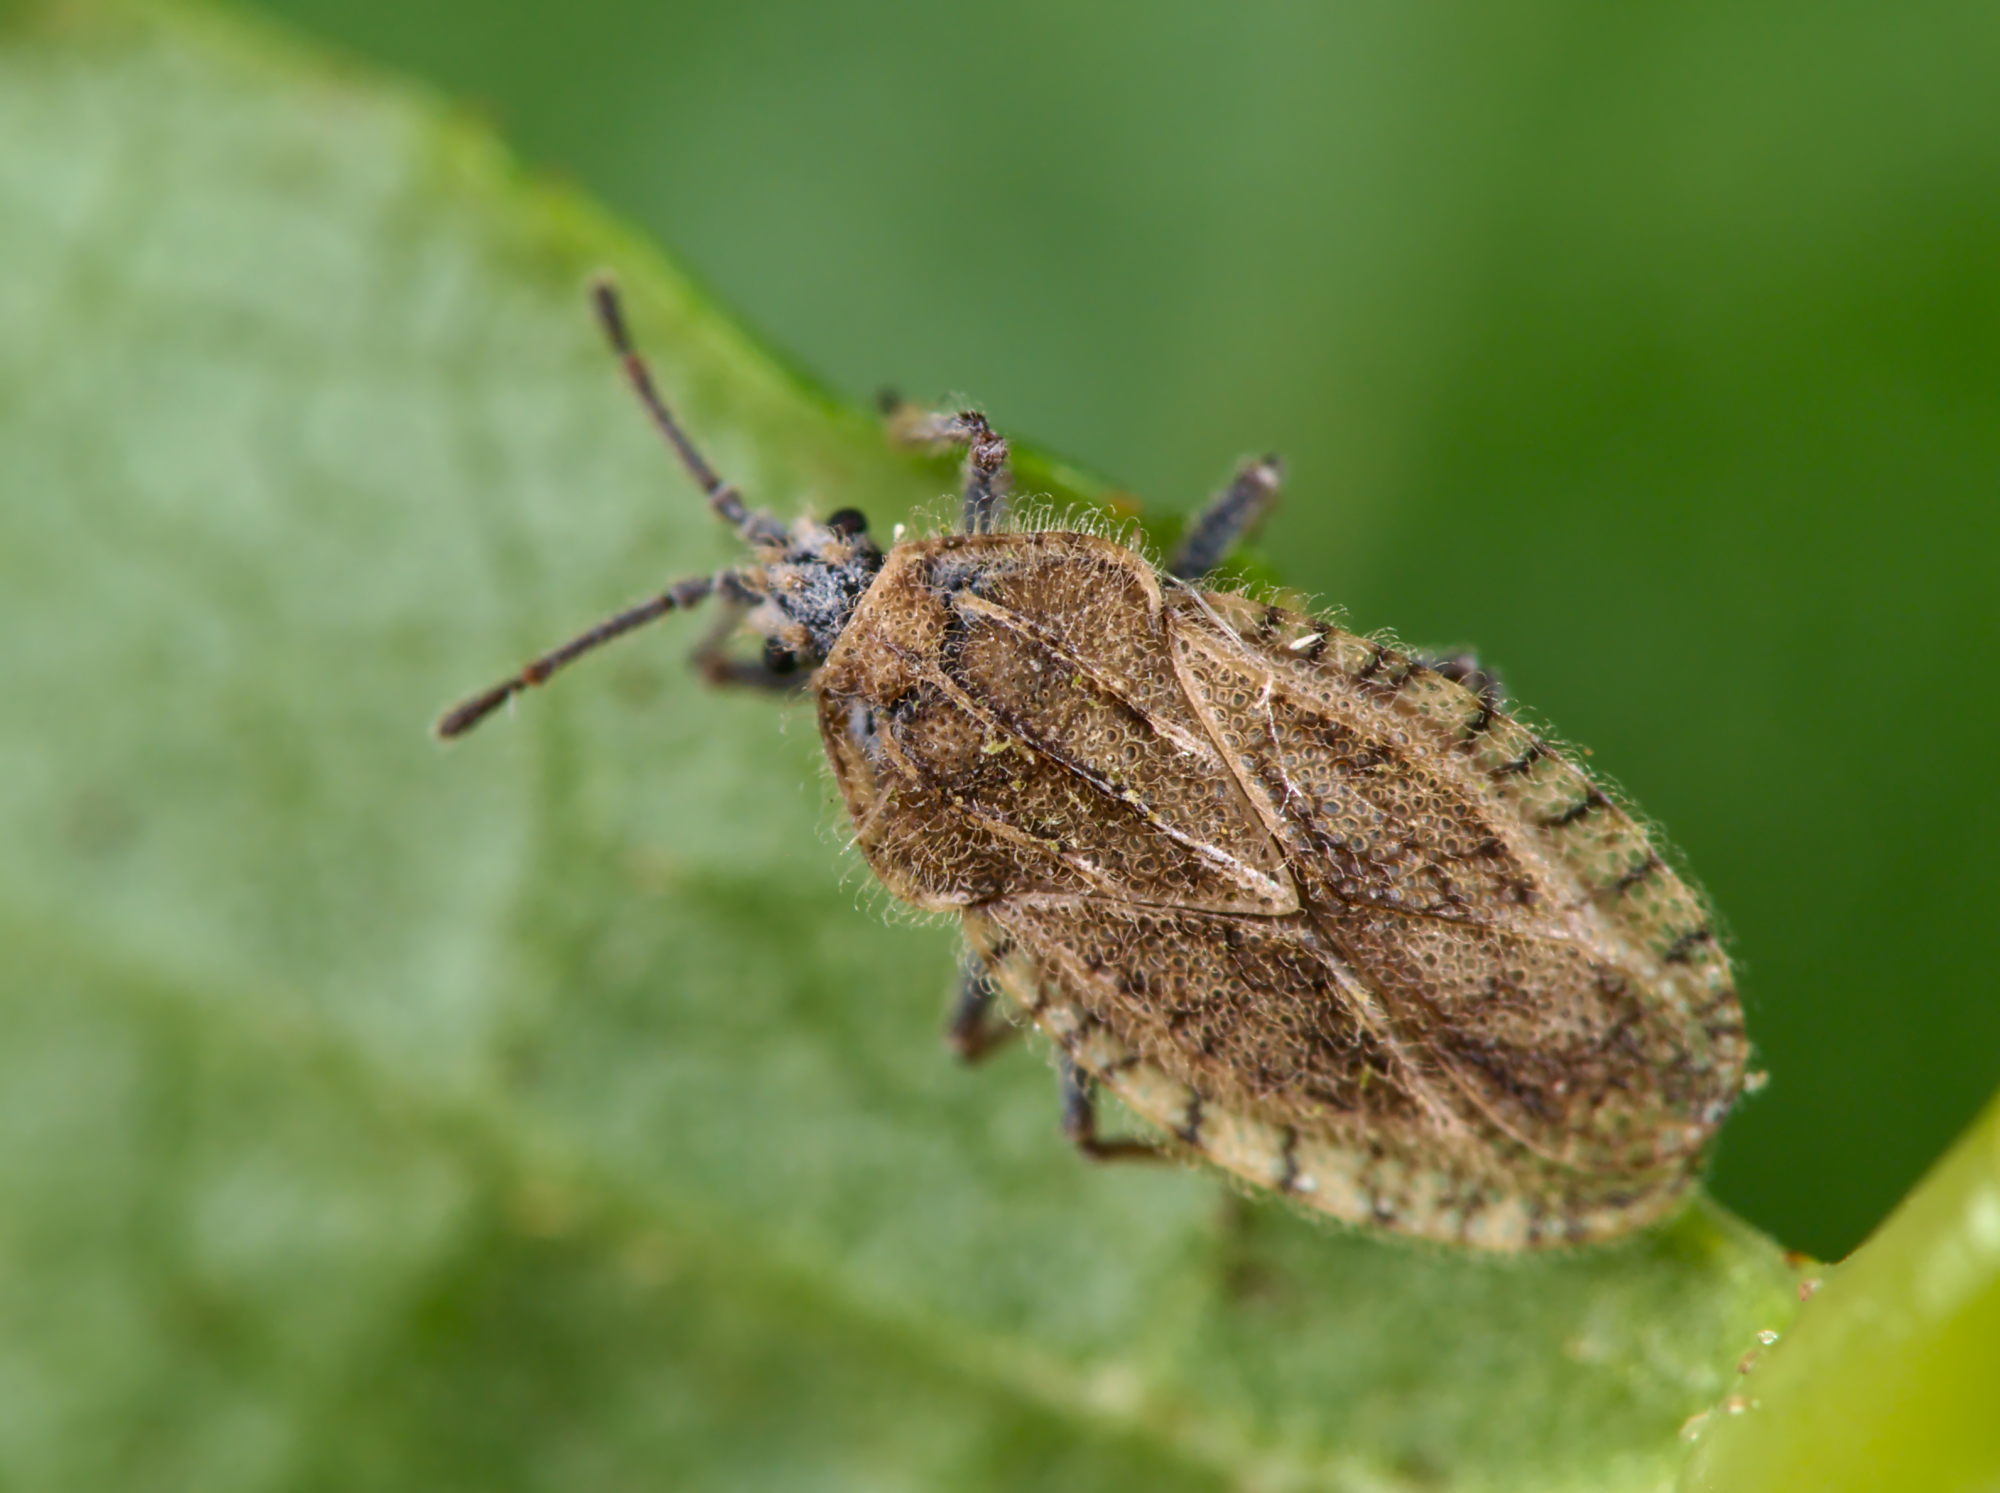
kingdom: Animalia
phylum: Arthropoda
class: Insecta
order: Hemiptera
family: Tingidae
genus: Tingis
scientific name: Tingis pilosa
